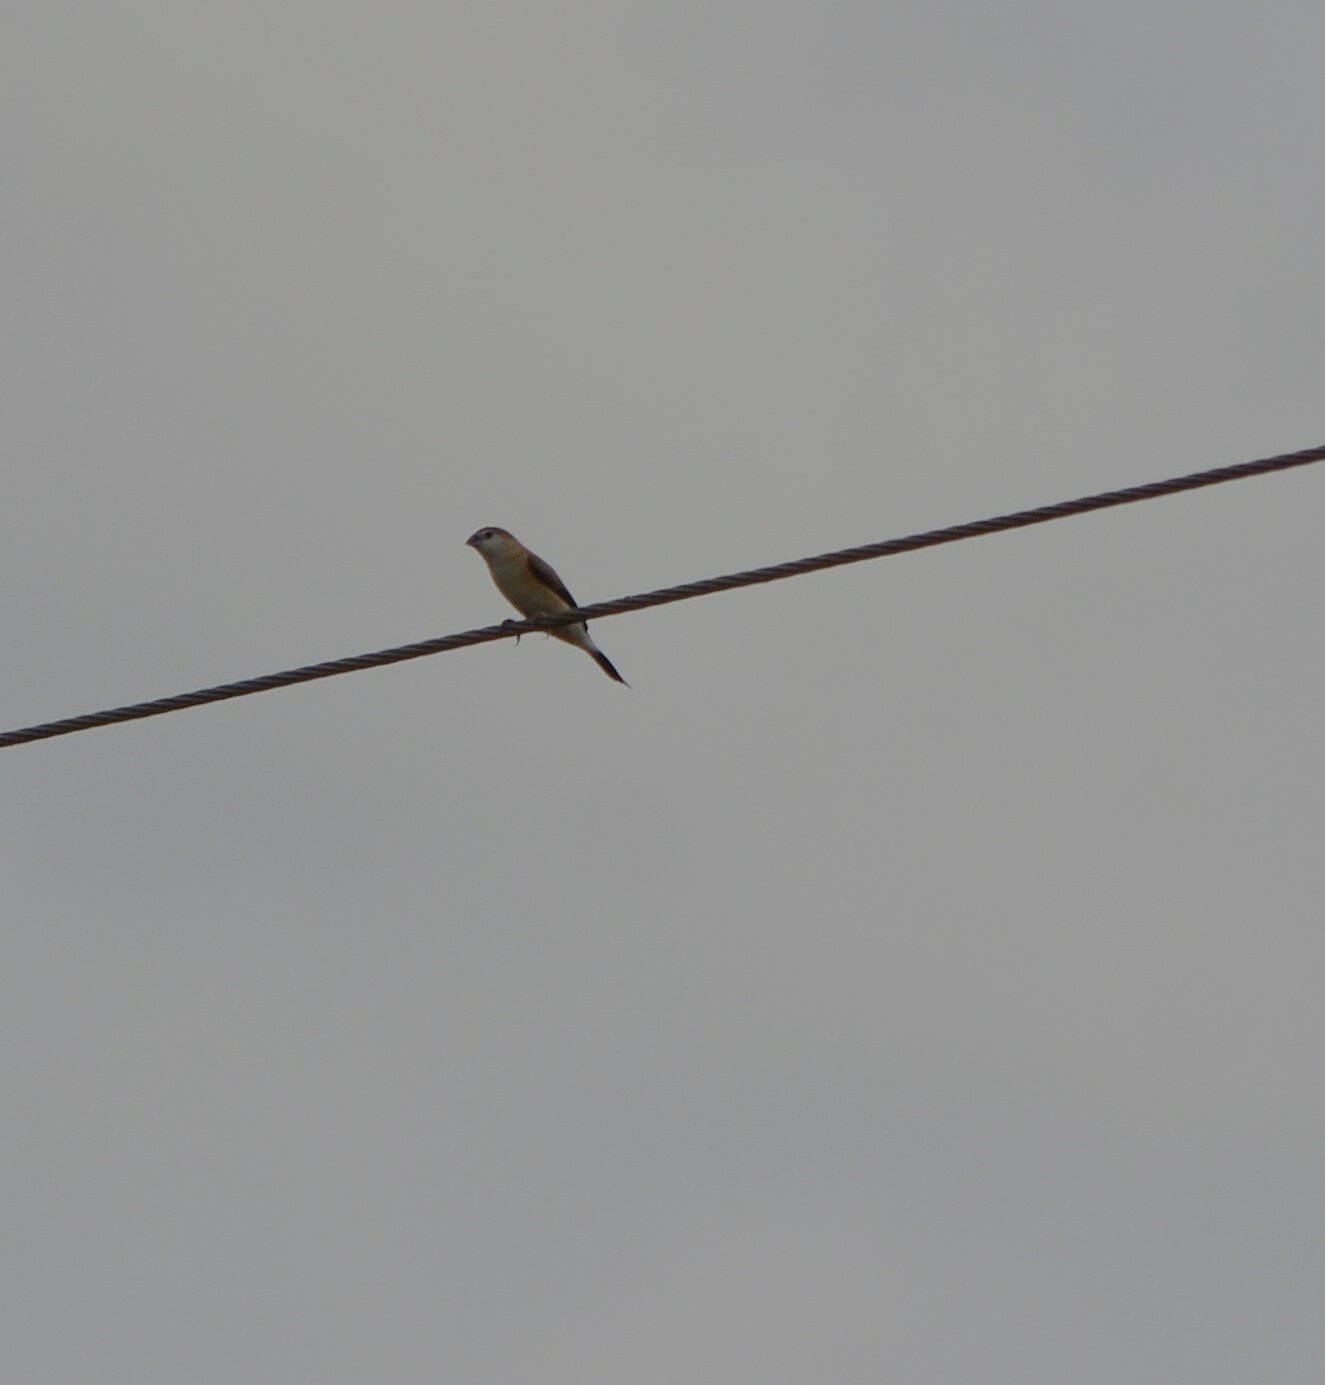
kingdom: Animalia
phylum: Chordata
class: Aves
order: Passeriformes
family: Estrildidae
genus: Euodice
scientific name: Euodice malabarica
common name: Indian silverbill
